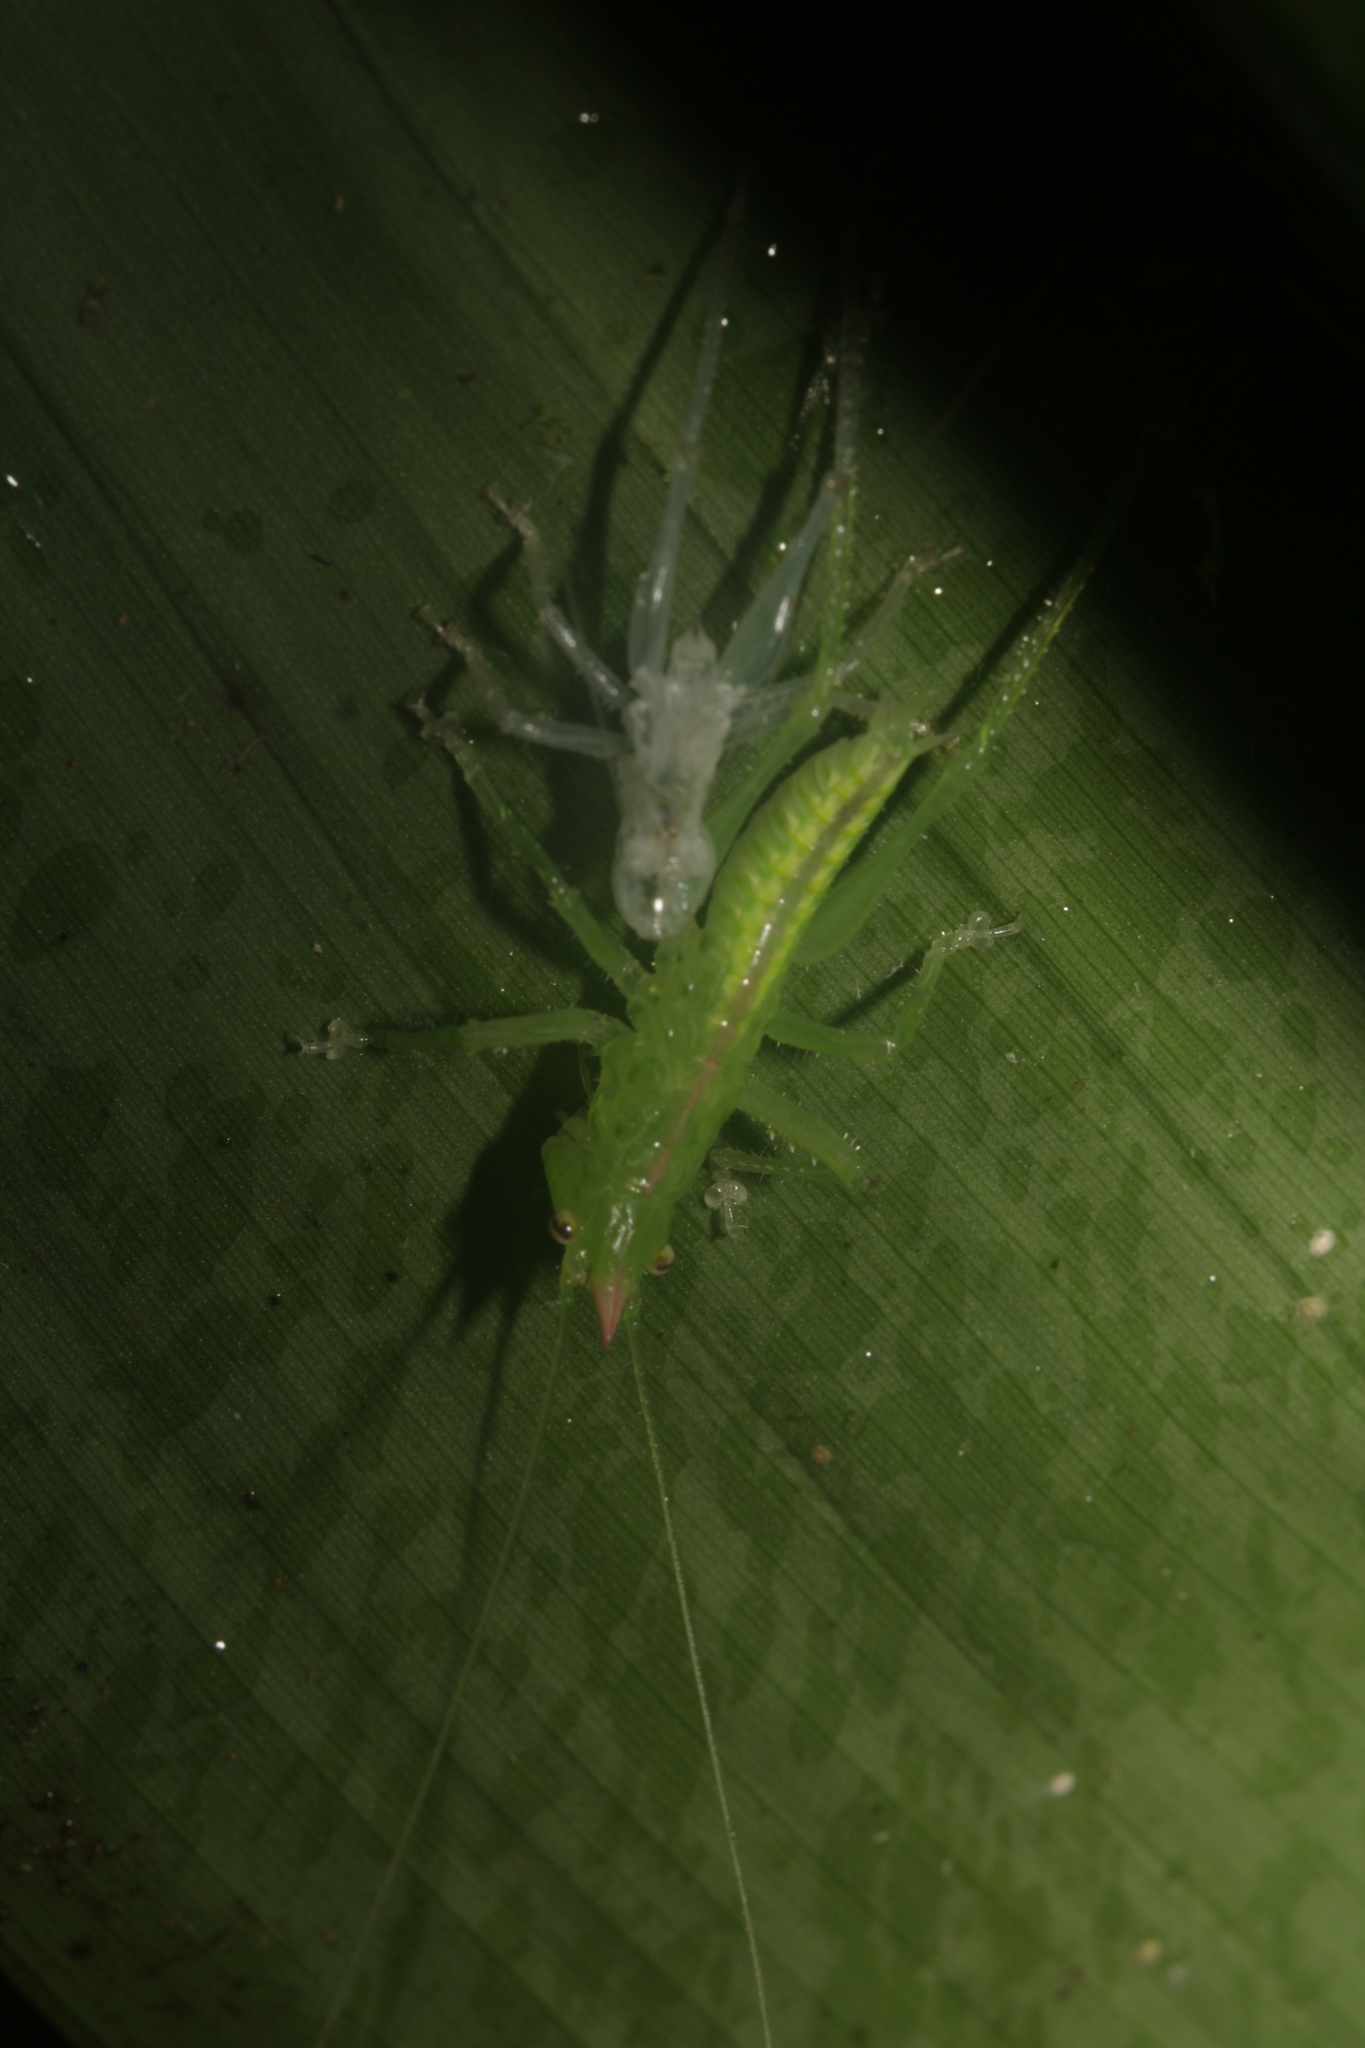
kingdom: Animalia
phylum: Arthropoda
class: Insecta
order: Orthoptera
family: Tettigoniidae
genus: Copiphora
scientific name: Copiphora rhinoceros
